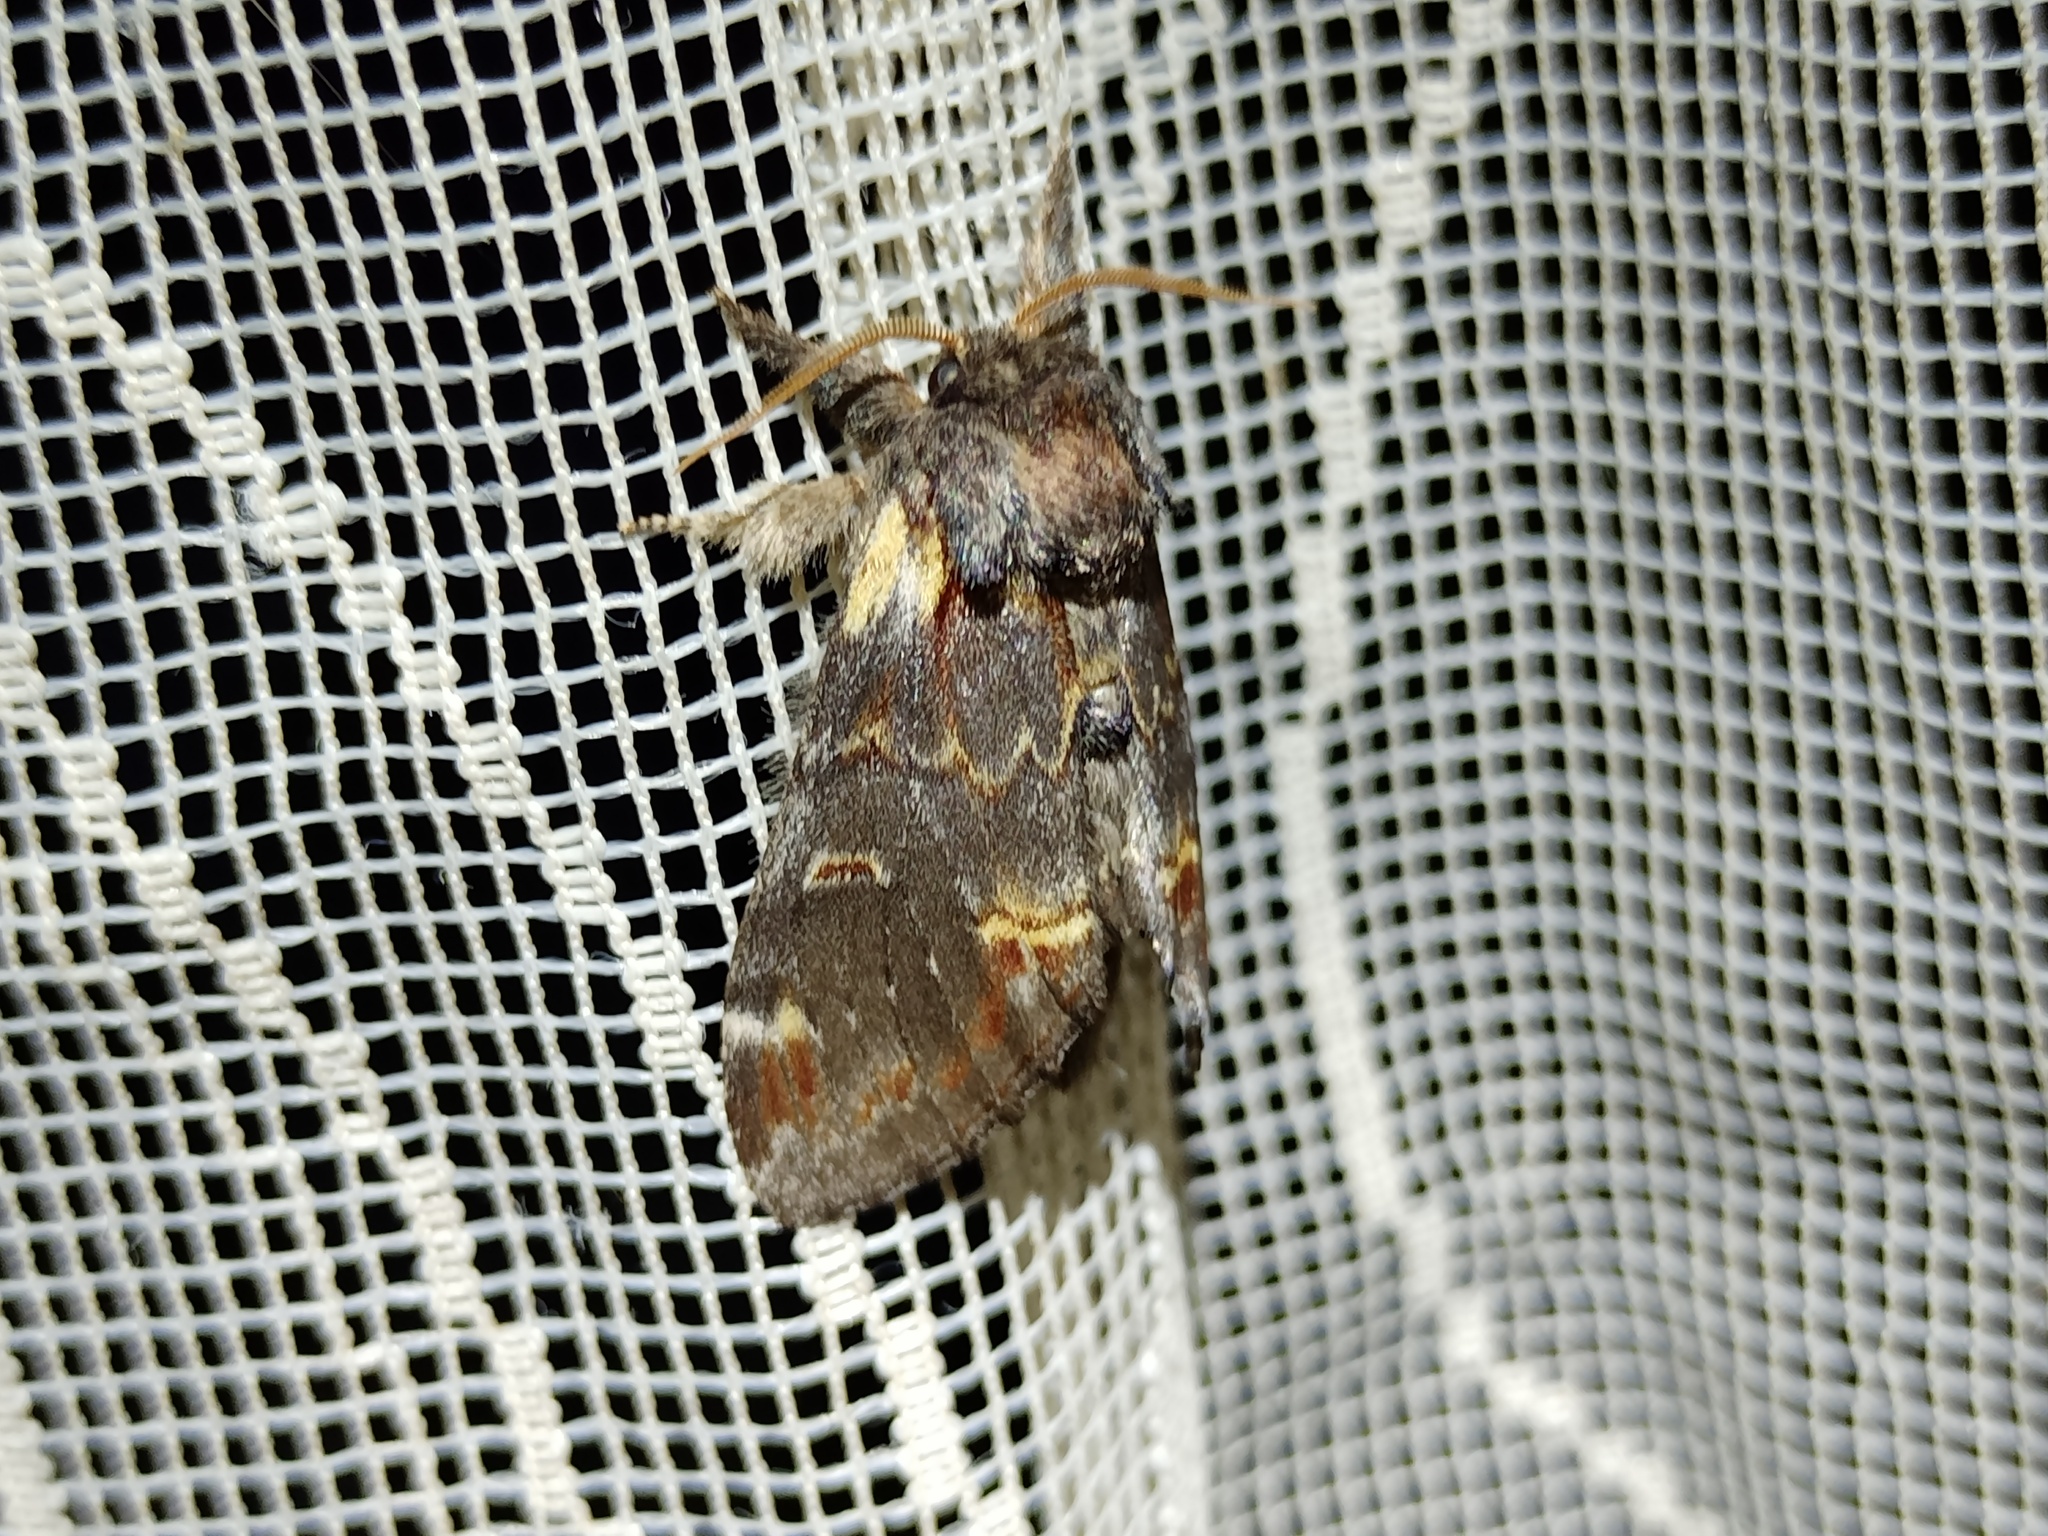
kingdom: Animalia
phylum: Arthropoda
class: Insecta
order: Lepidoptera
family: Notodontidae
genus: Notodonta
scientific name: Notodonta dromedarius
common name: Iron prominent
